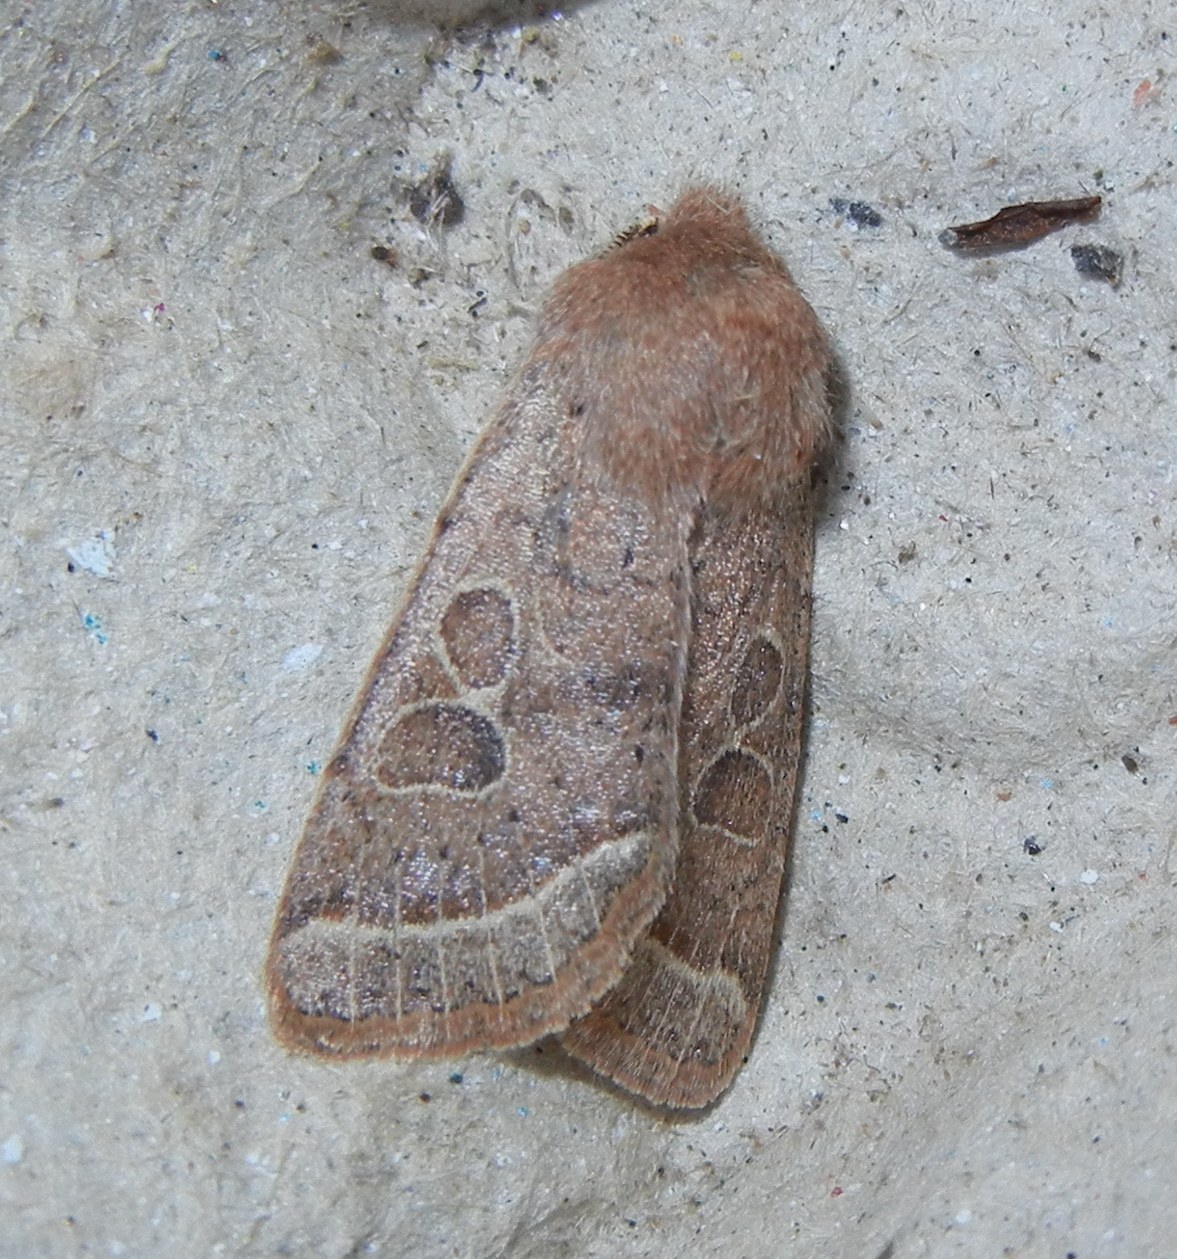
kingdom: Animalia
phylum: Arthropoda
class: Insecta
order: Lepidoptera
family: Noctuidae
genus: Orthosia
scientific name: Orthosia cerasi
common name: Common quaker
